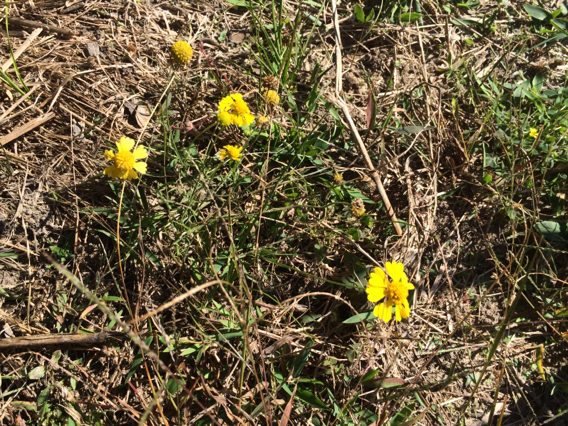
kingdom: Plantae
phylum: Tracheophyta
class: Magnoliopsida
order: Asterales
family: Asteraceae
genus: Helenium
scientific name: Helenium amarum
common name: Bitter sneezeweed
